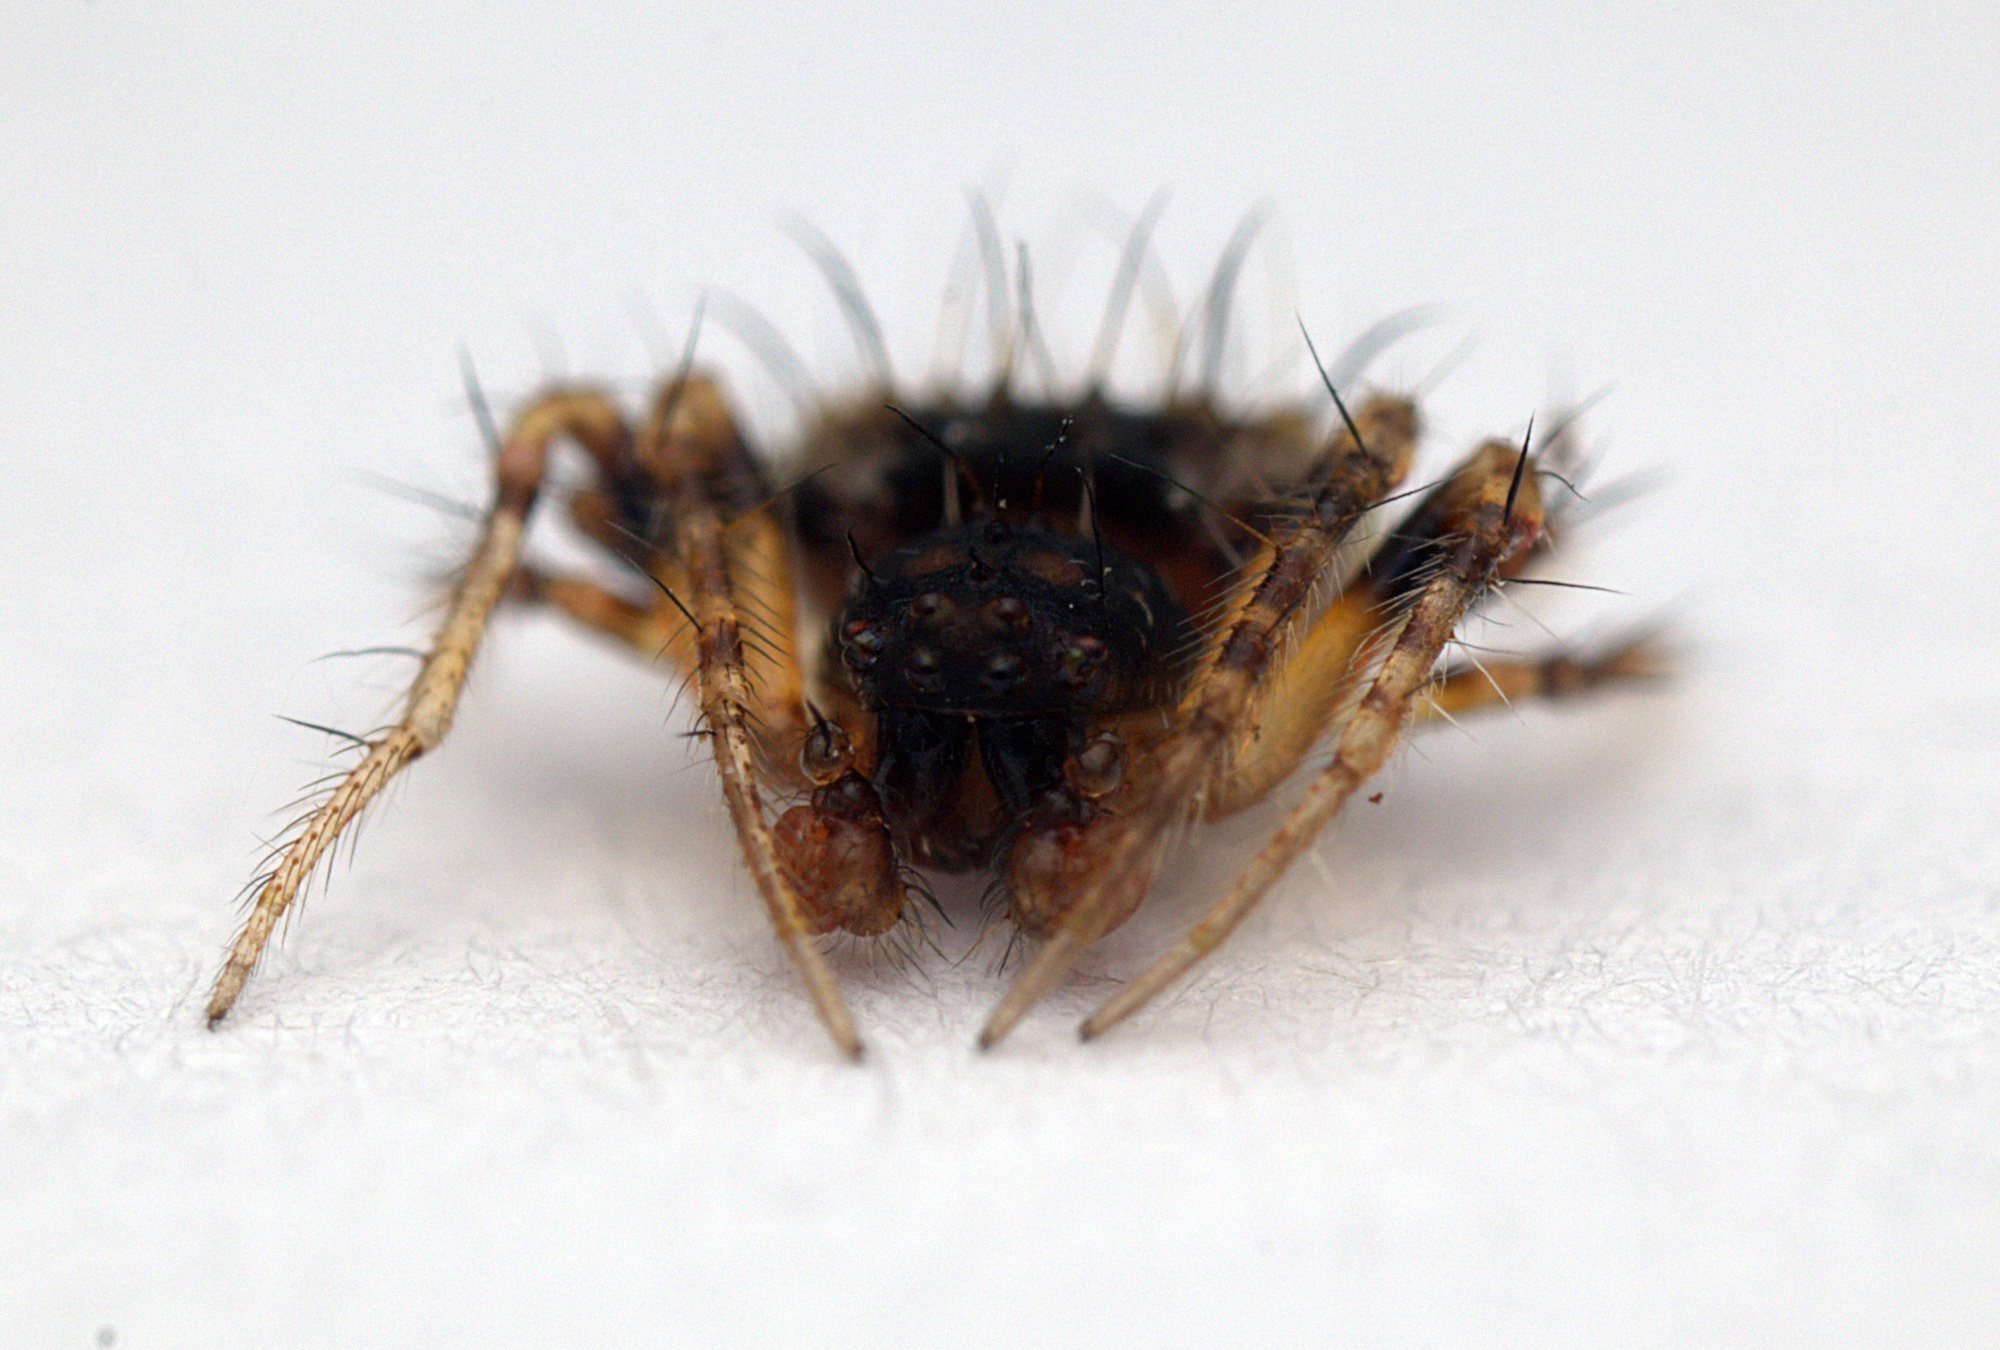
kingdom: Animalia
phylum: Arthropoda
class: Arachnida
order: Araneae
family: Araneidae
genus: Poecilopachys
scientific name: Poecilopachys australasia
